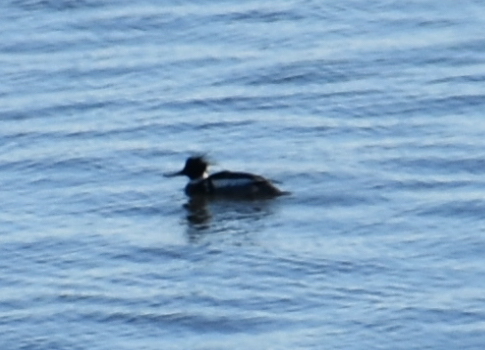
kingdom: Animalia
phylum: Chordata
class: Aves
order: Anseriformes
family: Anatidae
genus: Mergus
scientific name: Mergus serrator
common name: Red-breasted merganser
